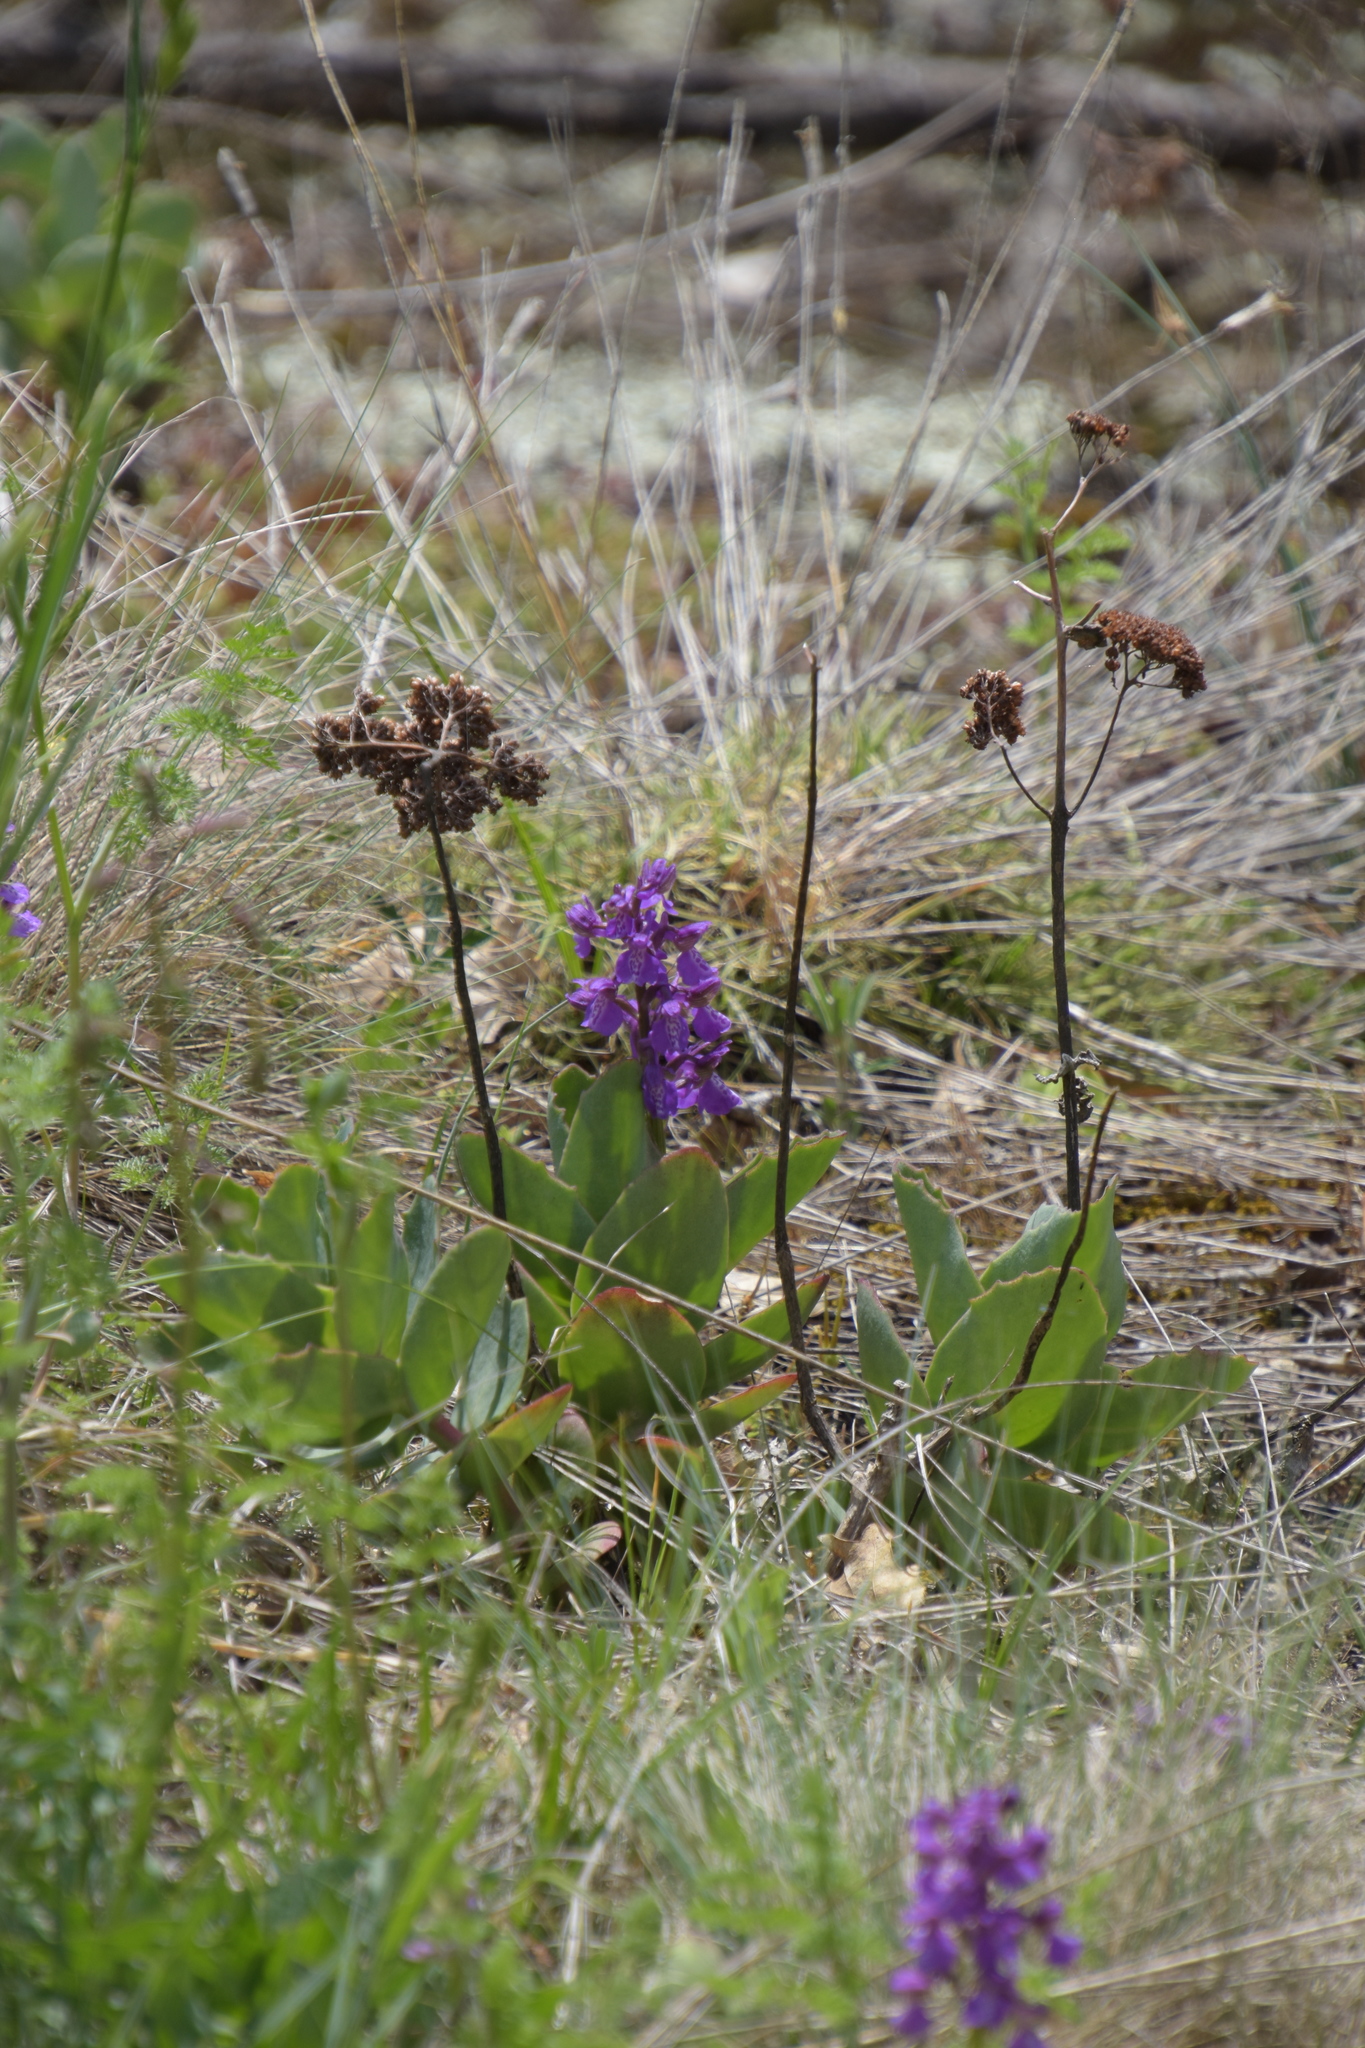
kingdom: Plantae
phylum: Tracheophyta
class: Liliopsida
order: Asparagales
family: Orchidaceae
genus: Anacamptis
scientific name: Anacamptis morio
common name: Green-winged orchid
